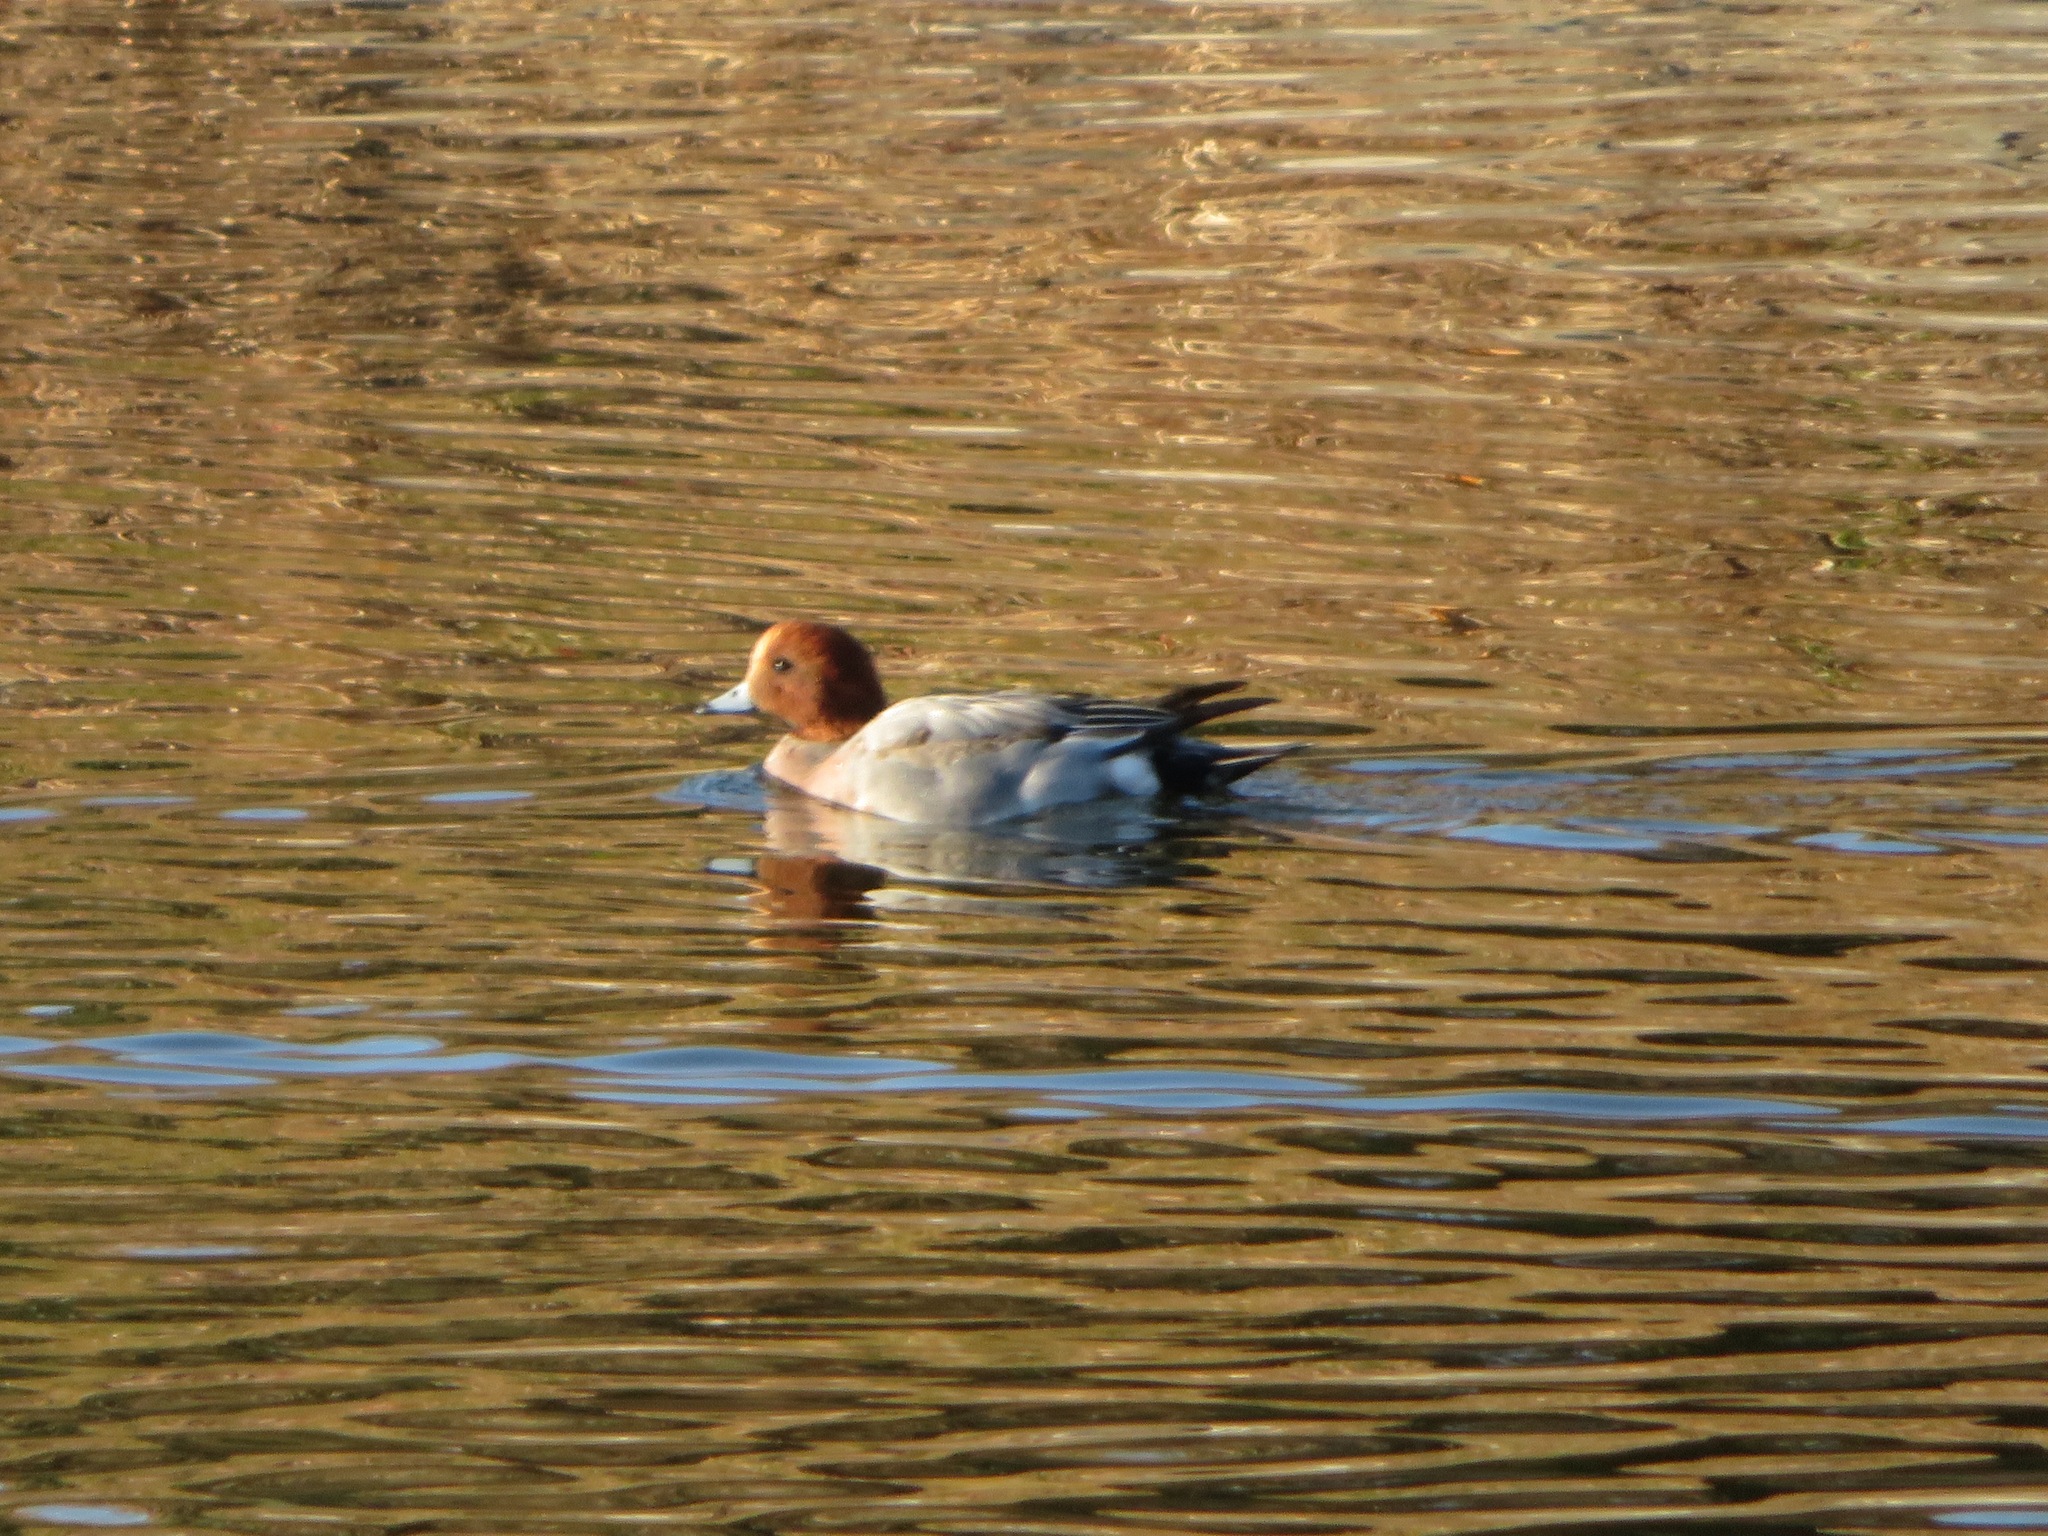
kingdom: Animalia
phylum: Chordata
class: Aves
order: Anseriformes
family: Anatidae
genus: Mareca
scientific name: Mareca penelope
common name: Eurasian wigeon
